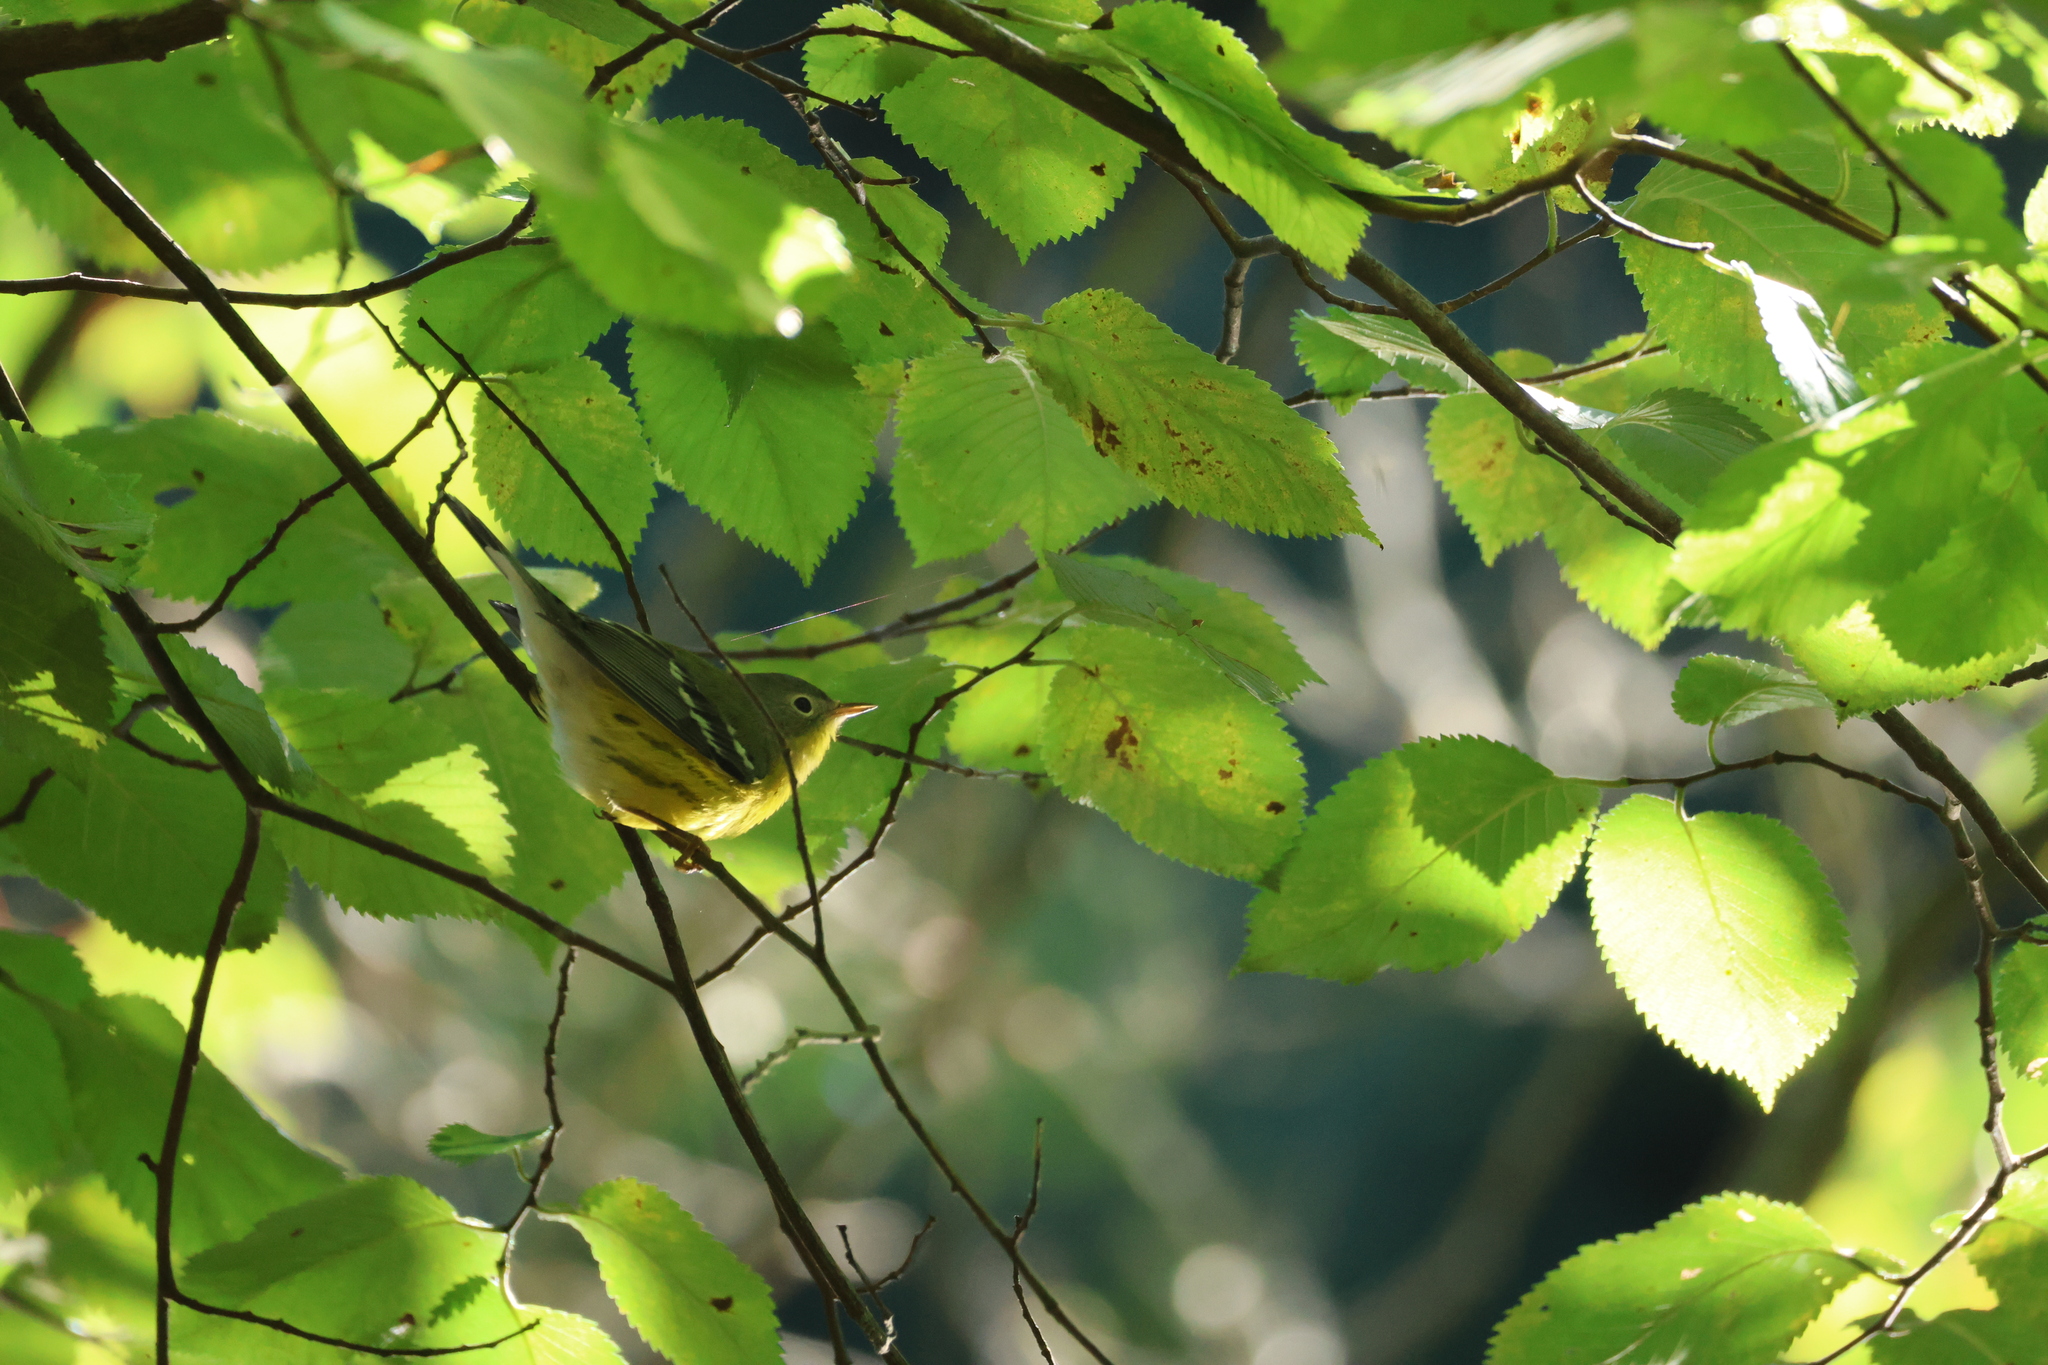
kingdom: Animalia
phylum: Chordata
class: Aves
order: Passeriformes
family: Parulidae
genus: Setophaga
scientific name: Setophaga magnolia
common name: Magnolia warbler
